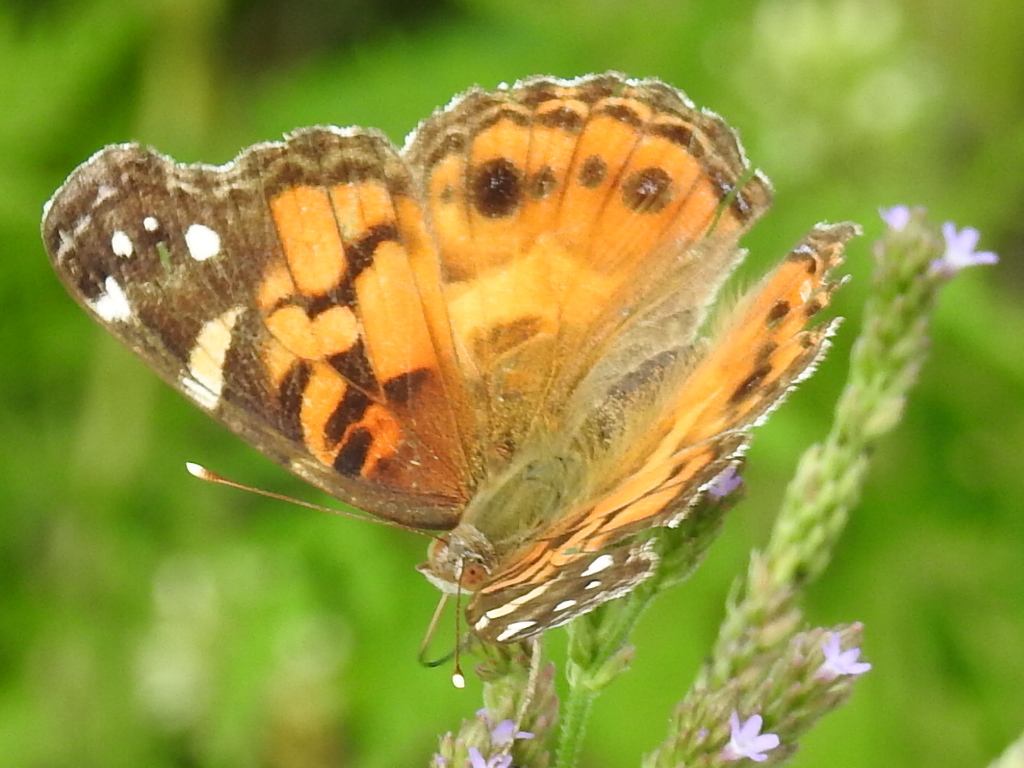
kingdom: Animalia
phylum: Arthropoda
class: Insecta
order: Lepidoptera
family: Nymphalidae
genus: Vanessa
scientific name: Vanessa virginiensis
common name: American lady
